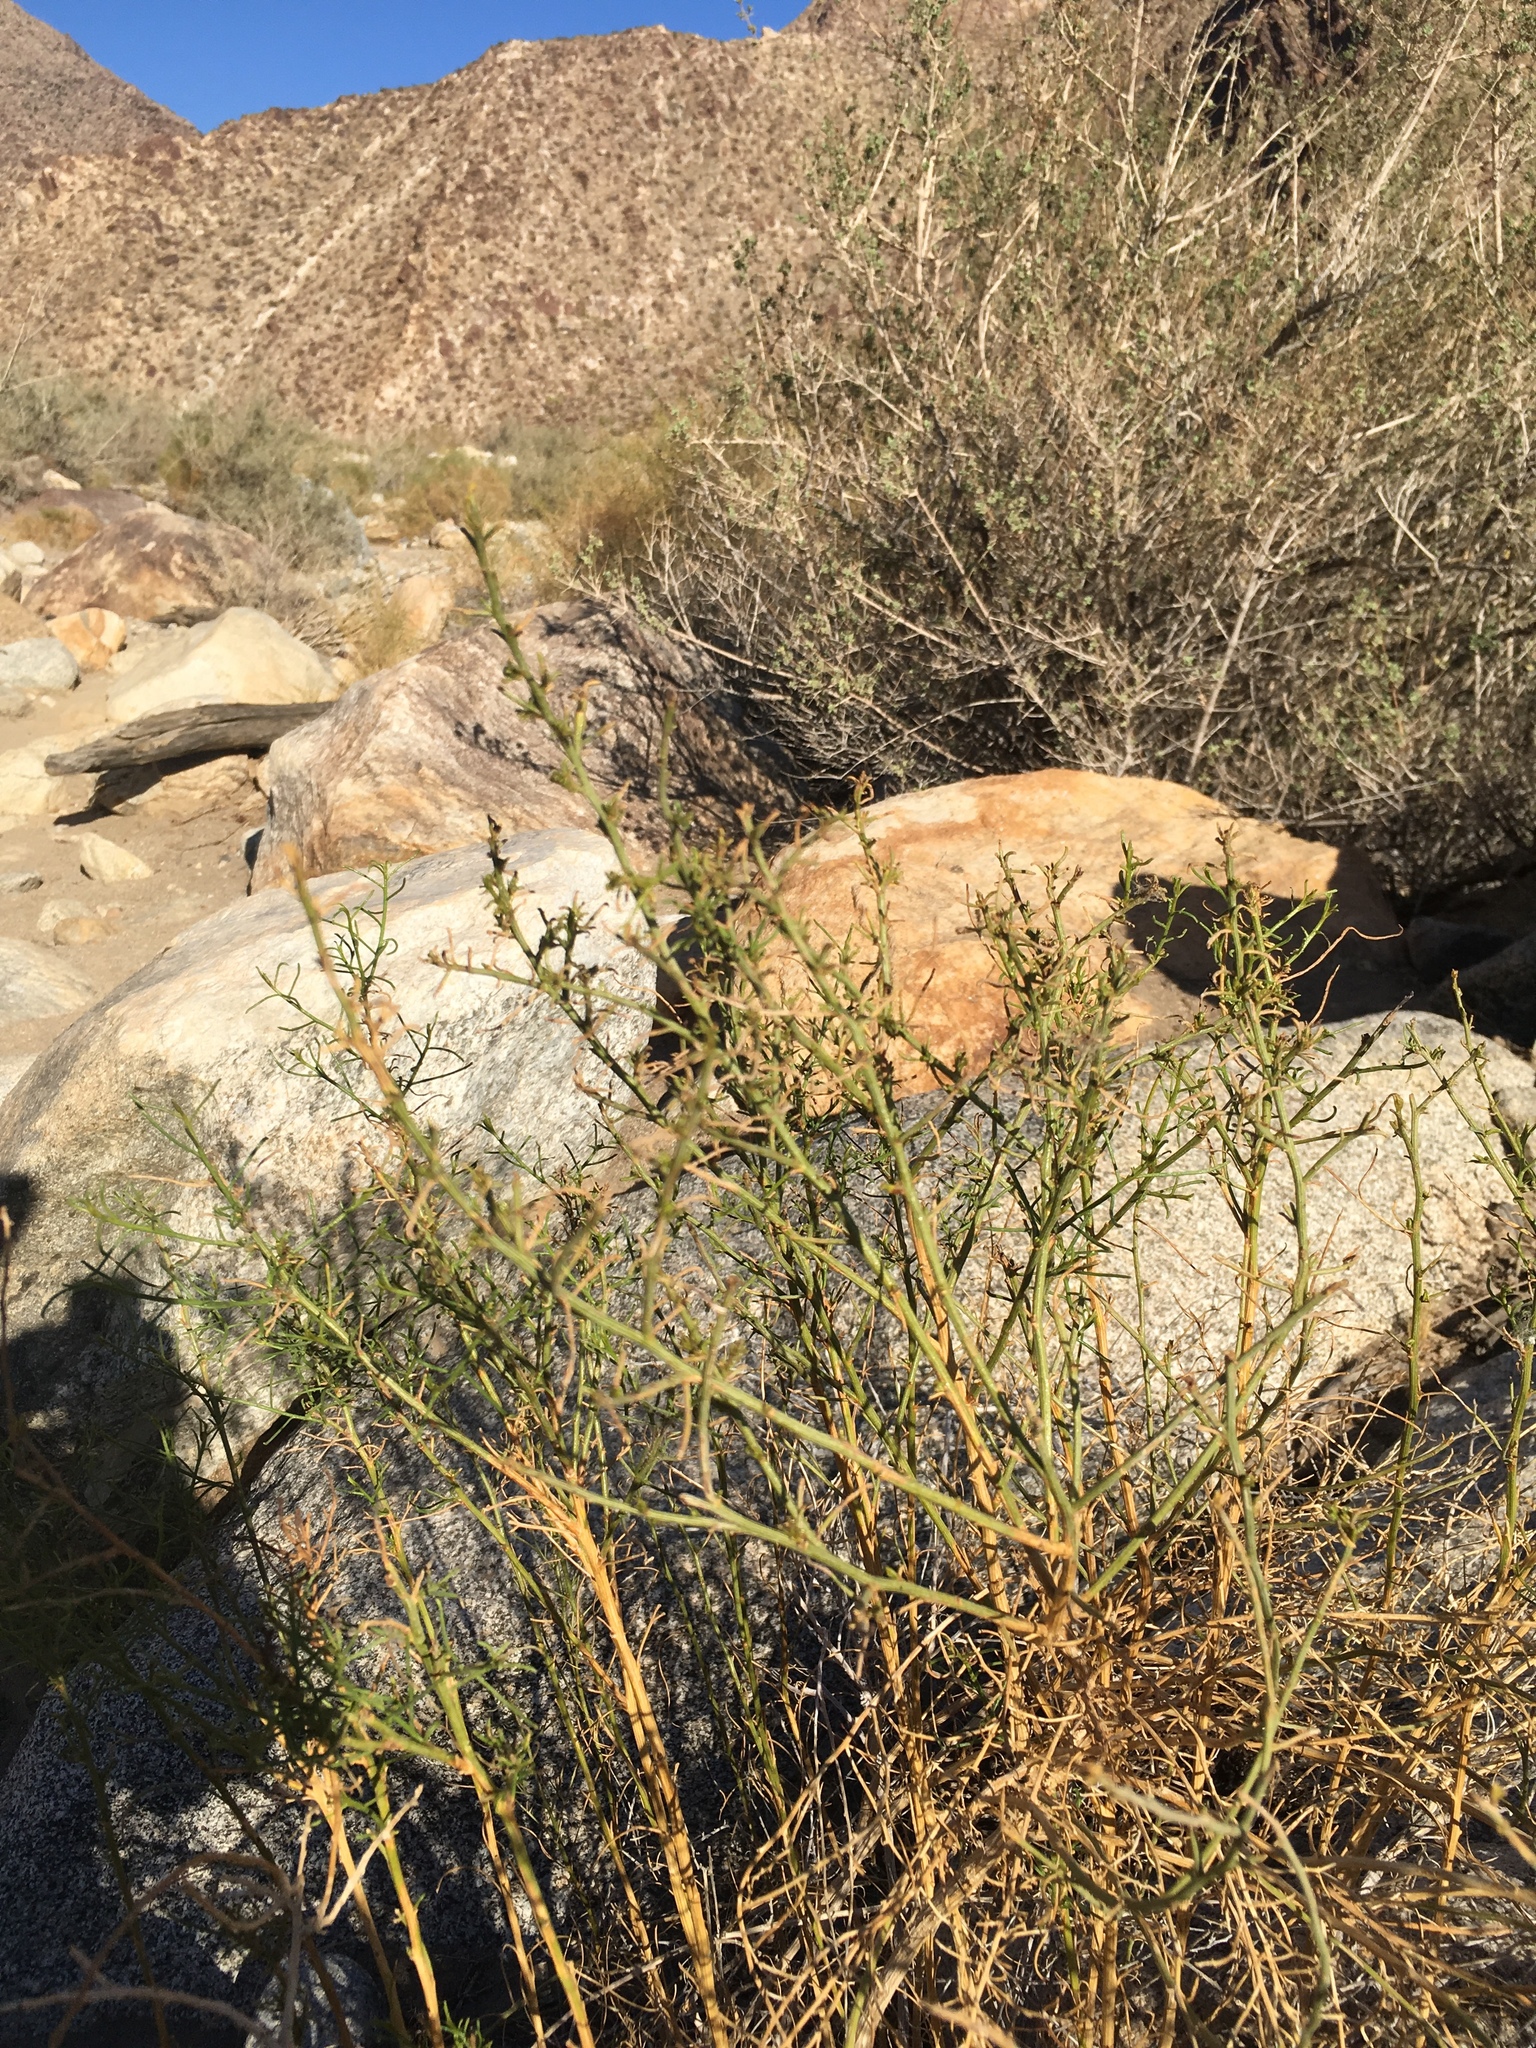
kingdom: Plantae
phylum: Tracheophyta
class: Magnoliopsida
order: Asterales
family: Asteraceae
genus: Ambrosia
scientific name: Ambrosia salsola
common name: Burrobrush
